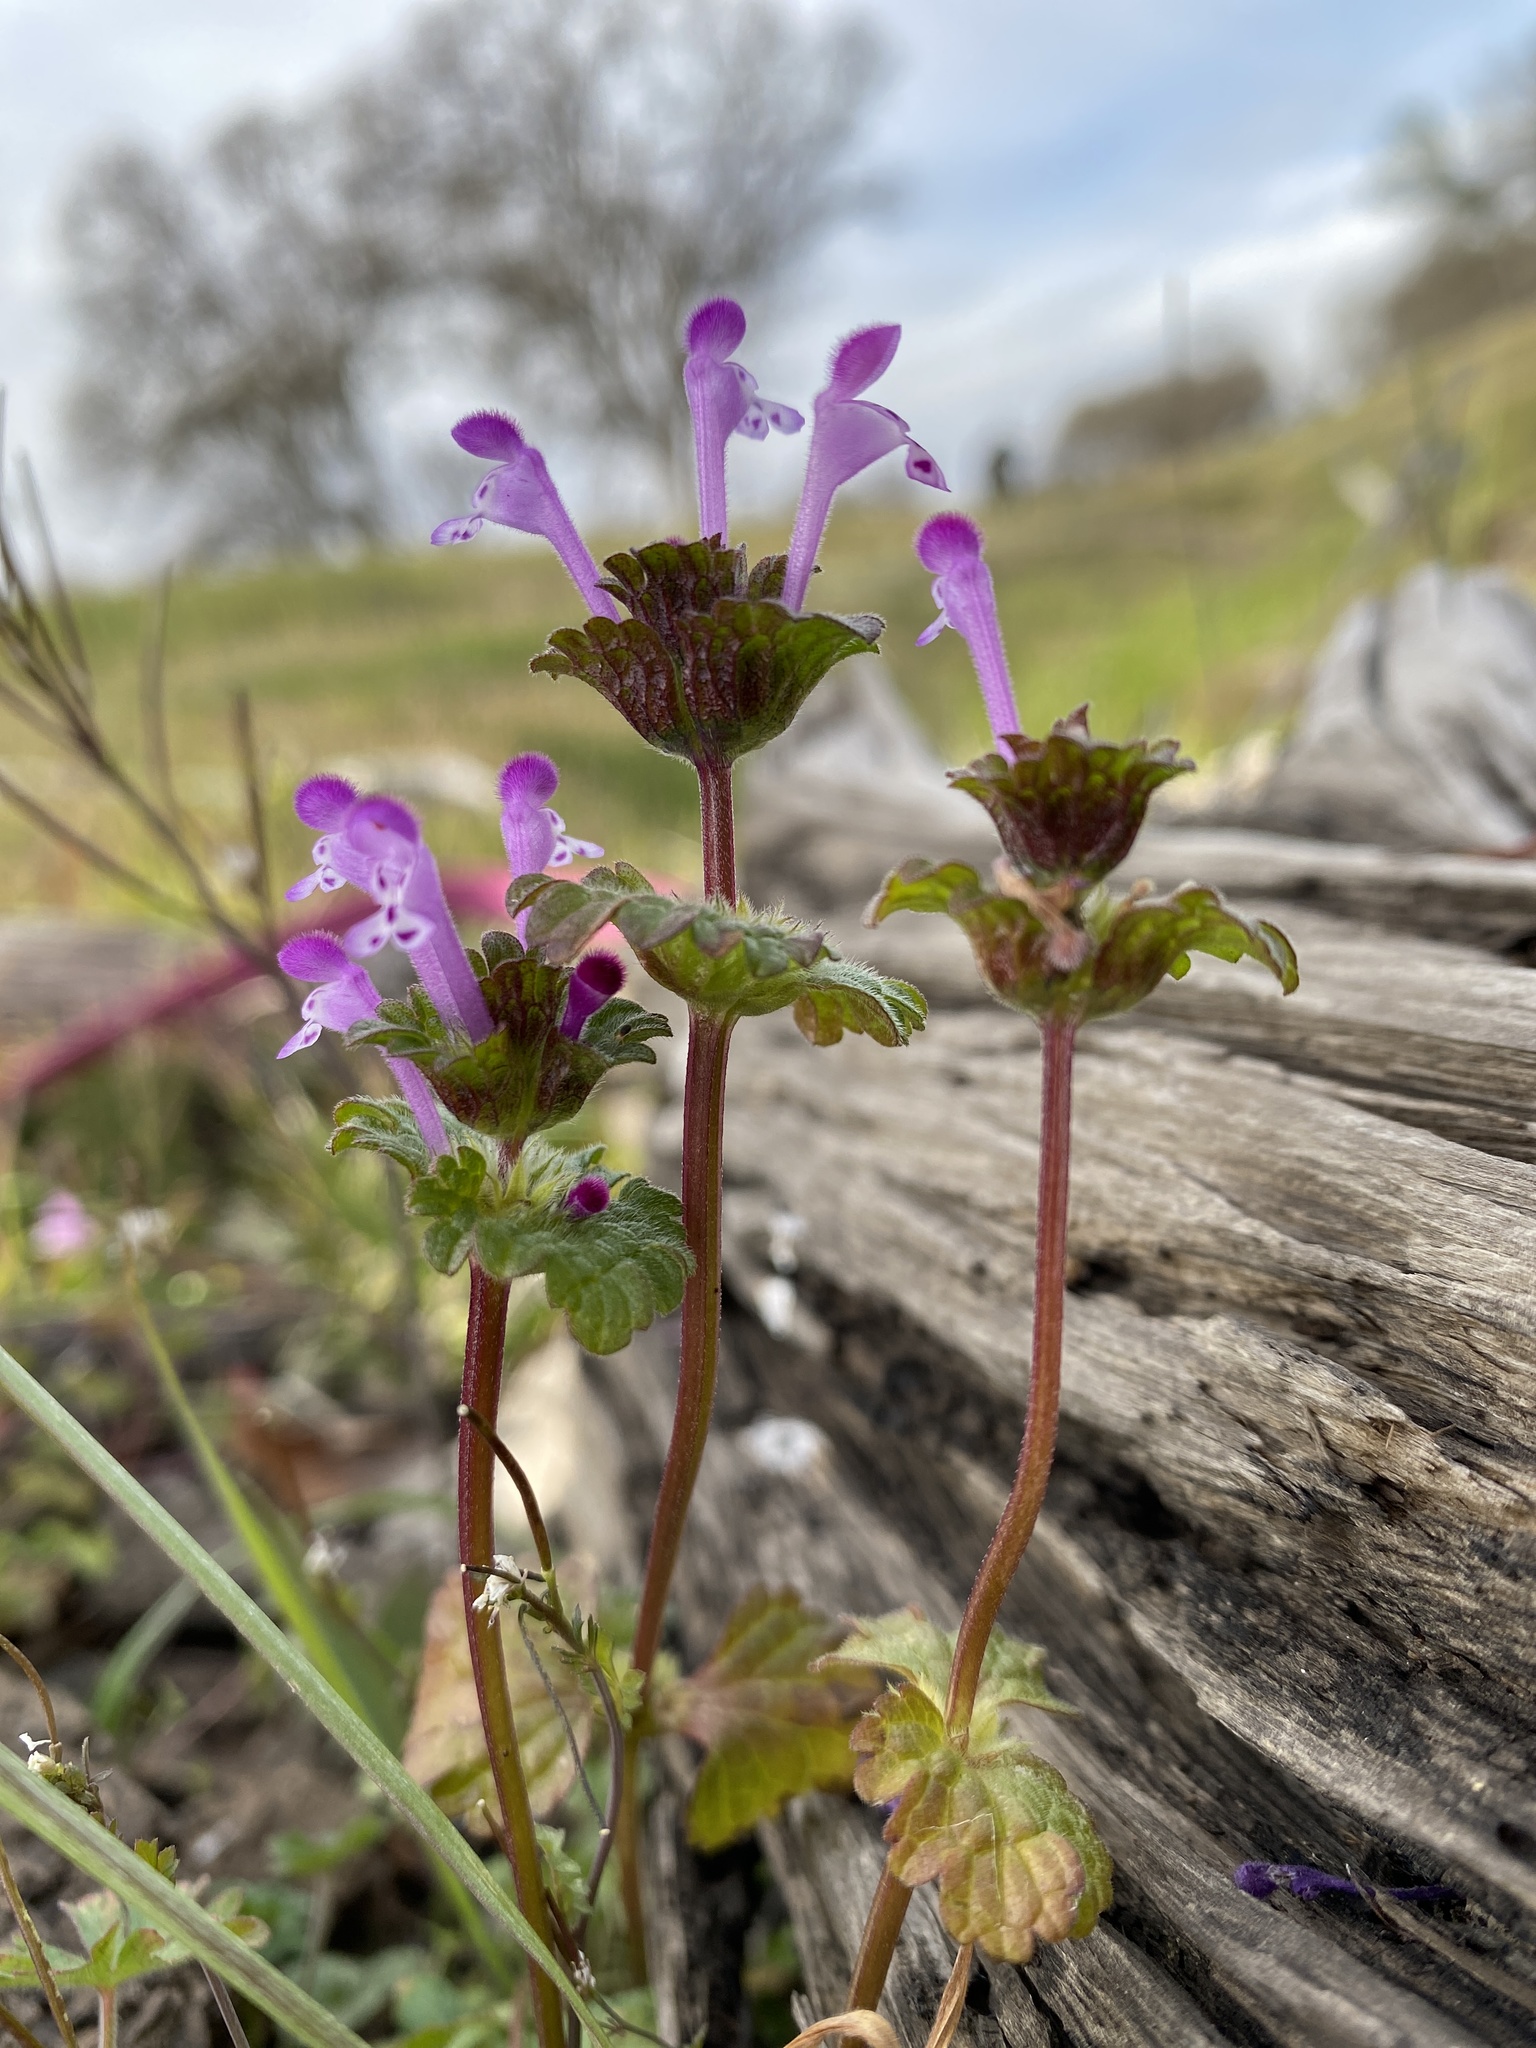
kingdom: Plantae
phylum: Tracheophyta
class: Magnoliopsida
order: Lamiales
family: Lamiaceae
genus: Lamium
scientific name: Lamium amplexicaule
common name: Henbit dead-nettle
